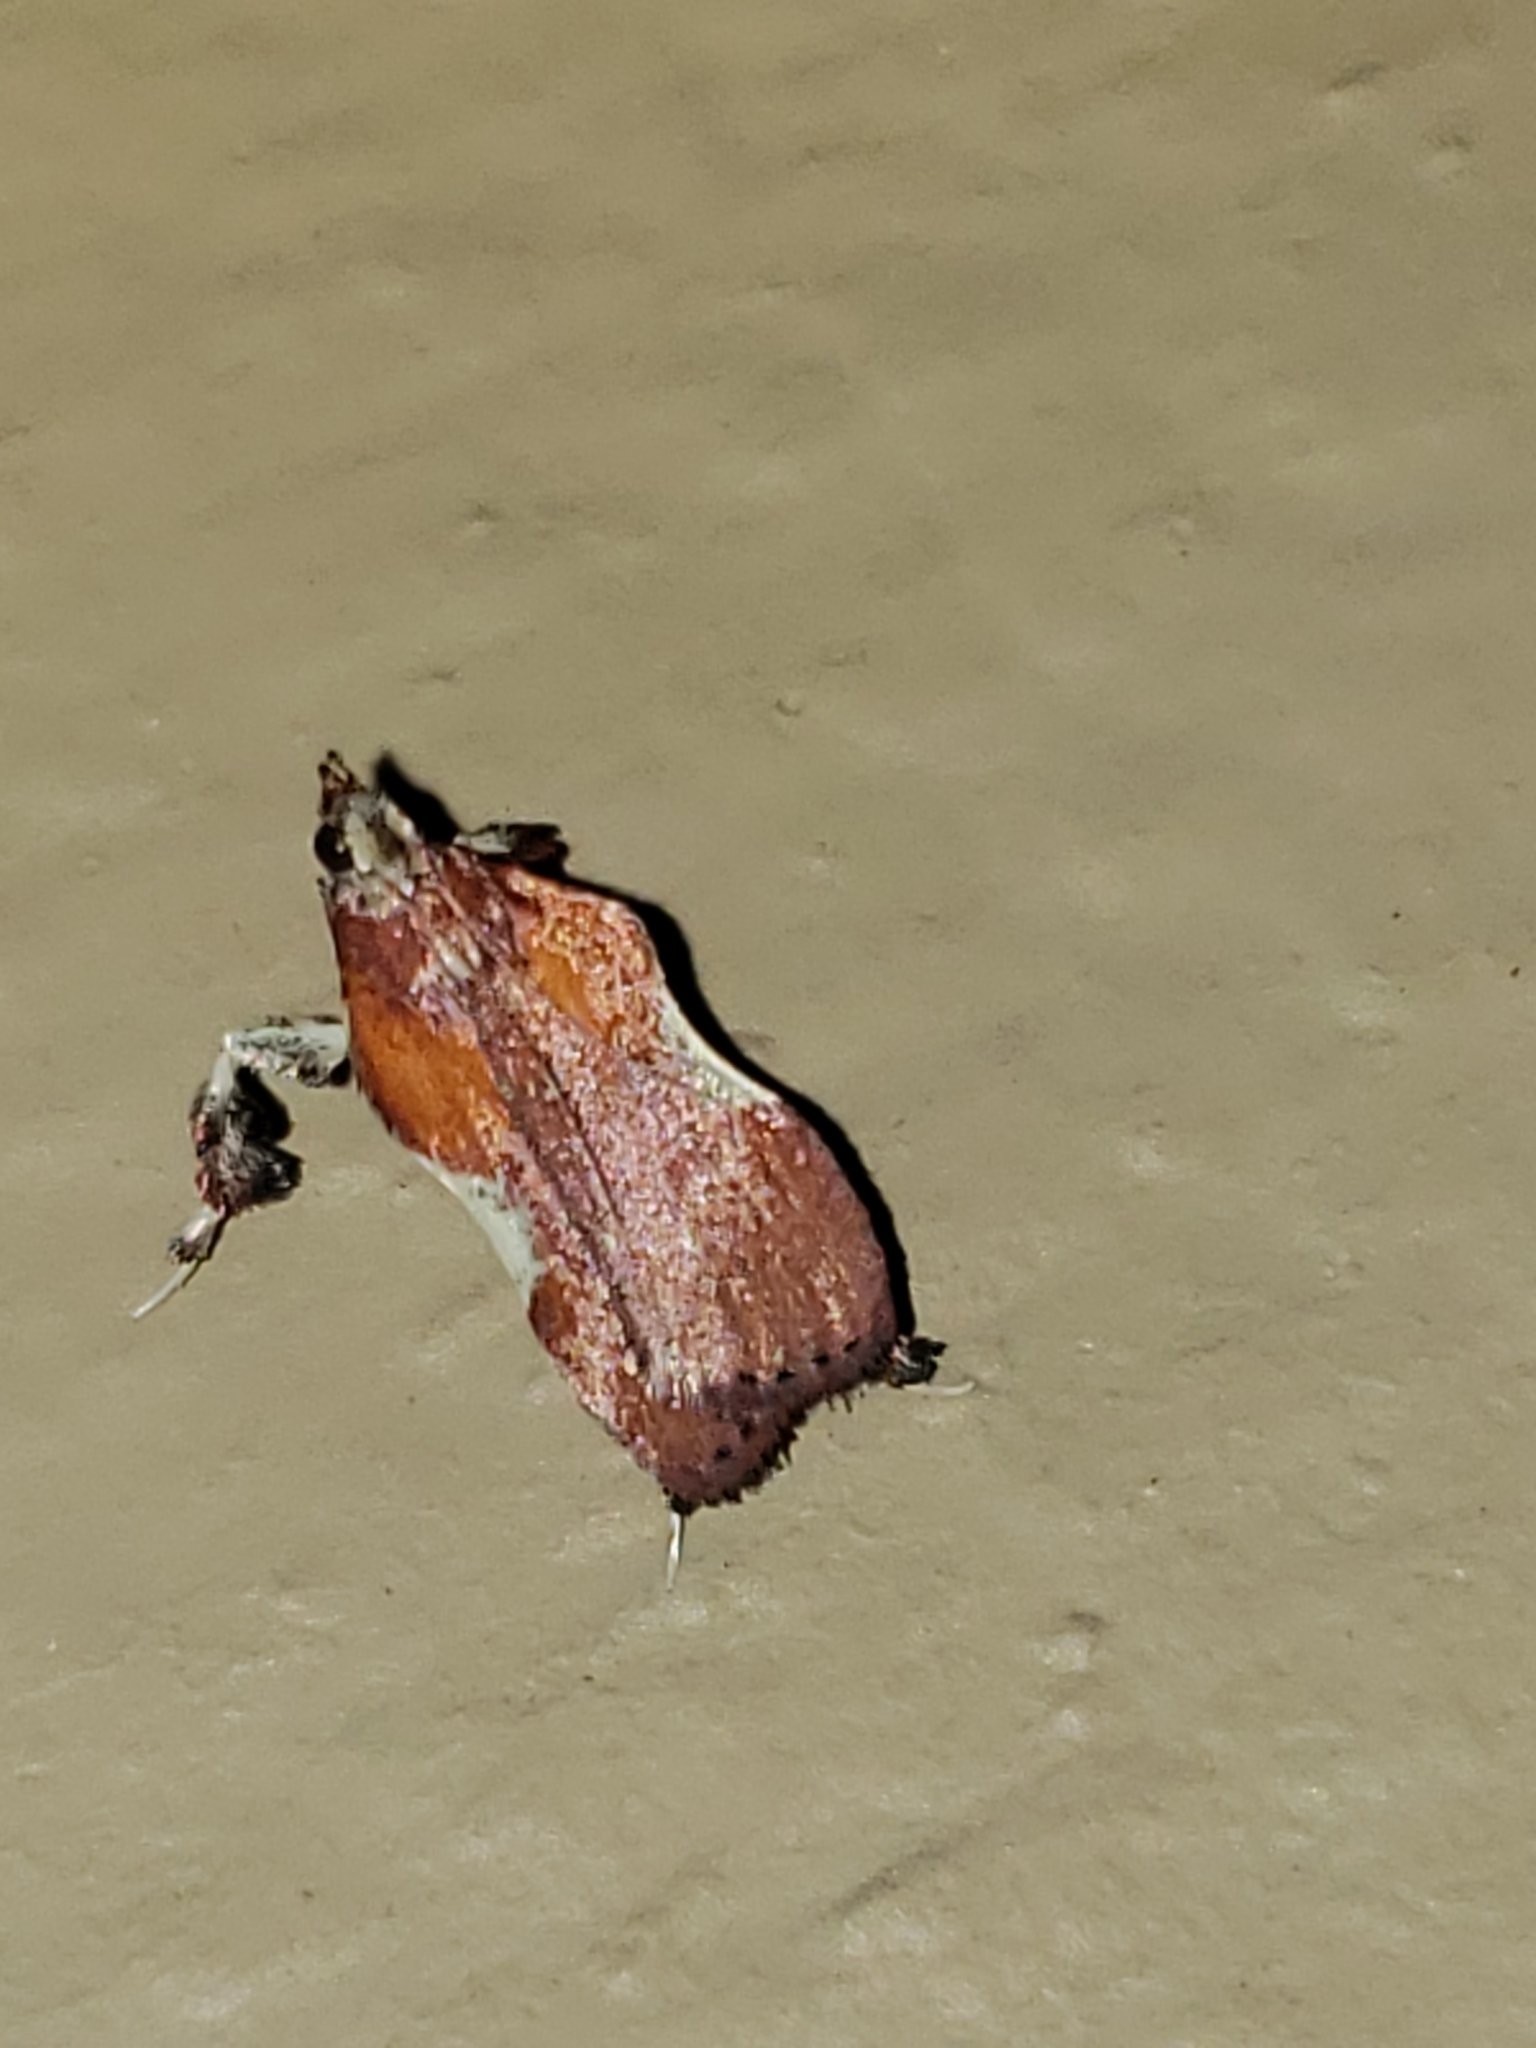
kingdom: Animalia
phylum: Arthropoda
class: Insecta
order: Lepidoptera
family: Pyralidae
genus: Galasa
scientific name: Galasa nigrinodis
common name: Boxwood leaftier moth
